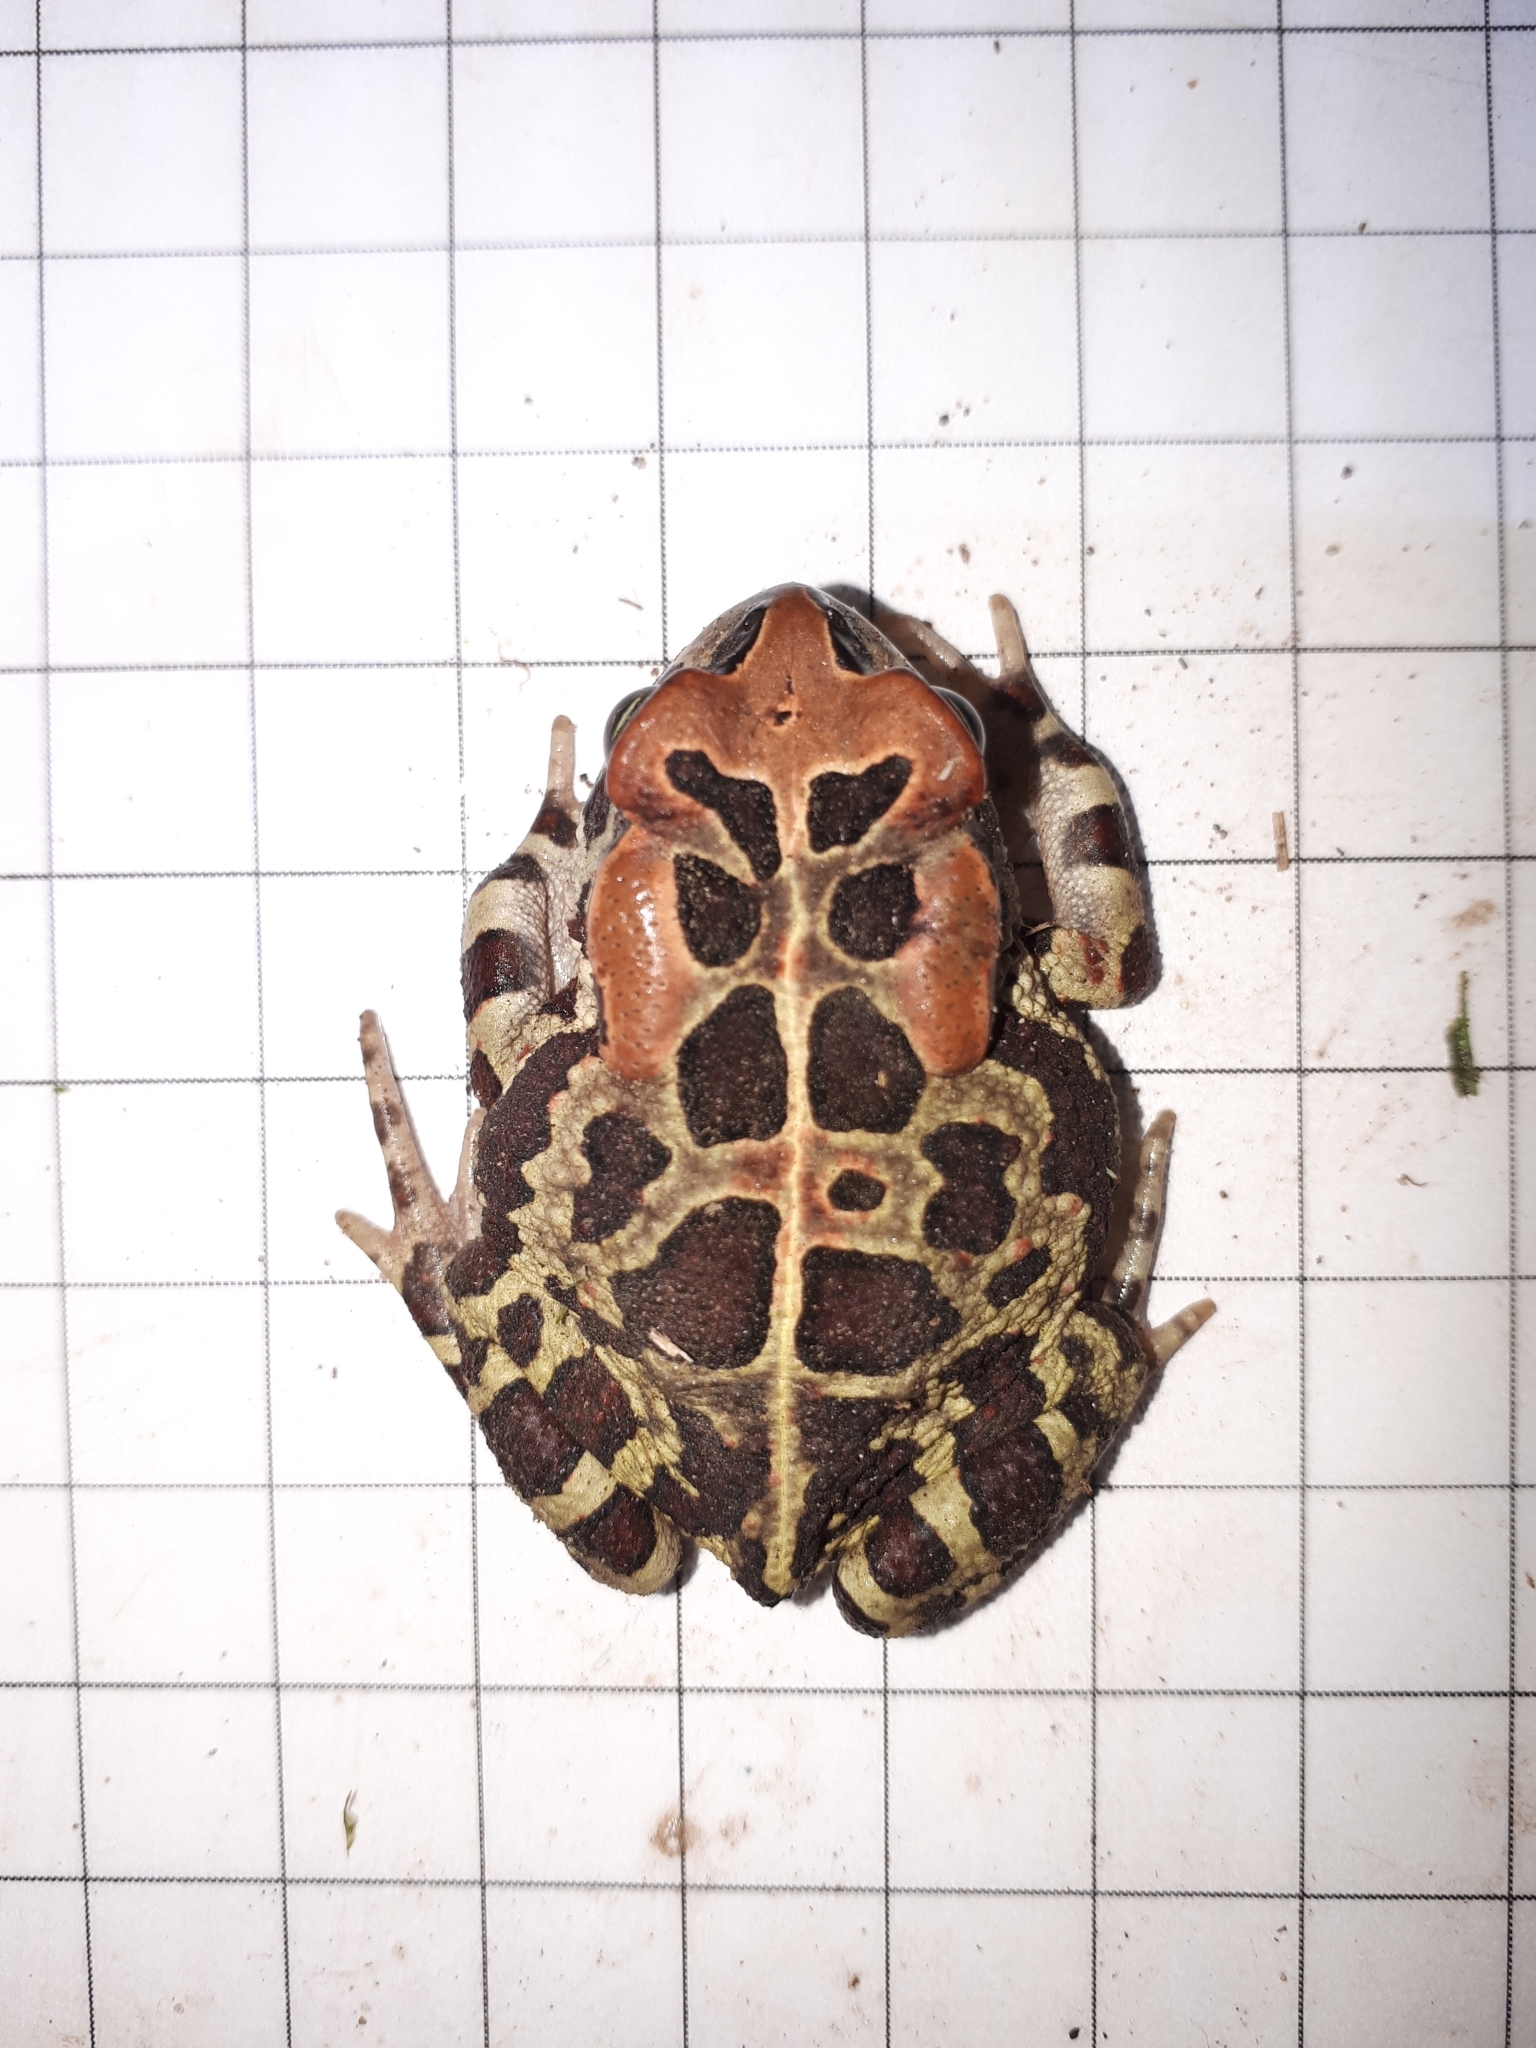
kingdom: Animalia
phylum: Chordata
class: Amphibia
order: Anura
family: Bufonidae
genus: Sclerophrys
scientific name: Sclerophrys pantherina
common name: Panther toad
